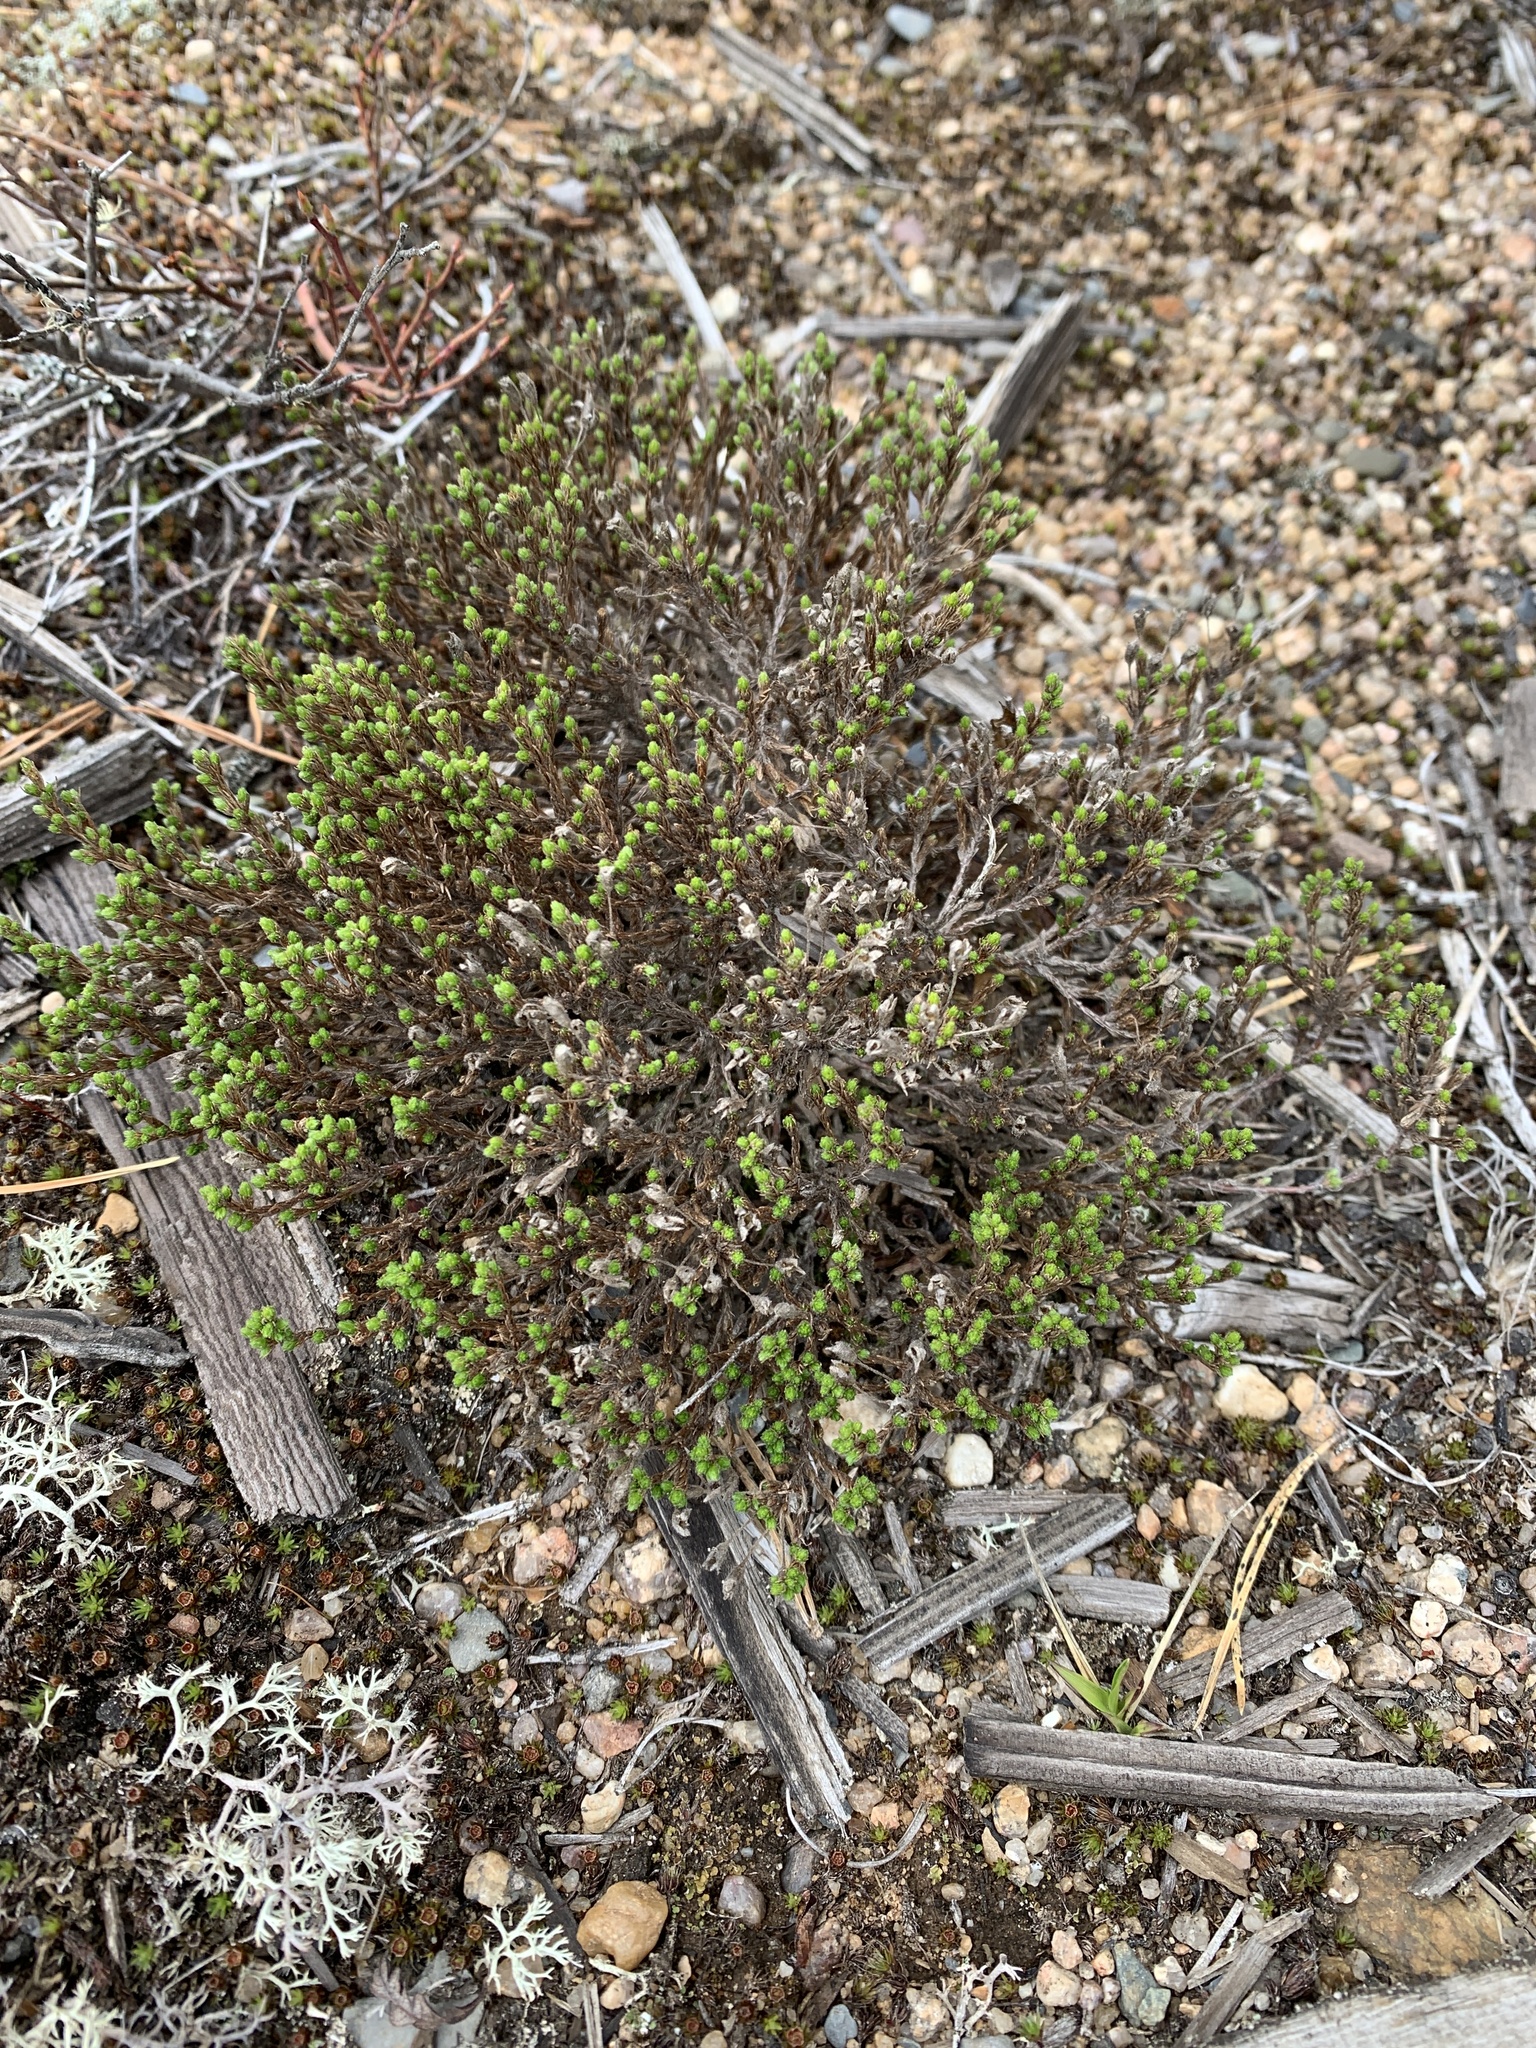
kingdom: Plantae
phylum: Tracheophyta
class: Magnoliopsida
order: Malvales
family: Cistaceae
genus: Hudsonia
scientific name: Hudsonia ericoides
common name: Golden-heather
